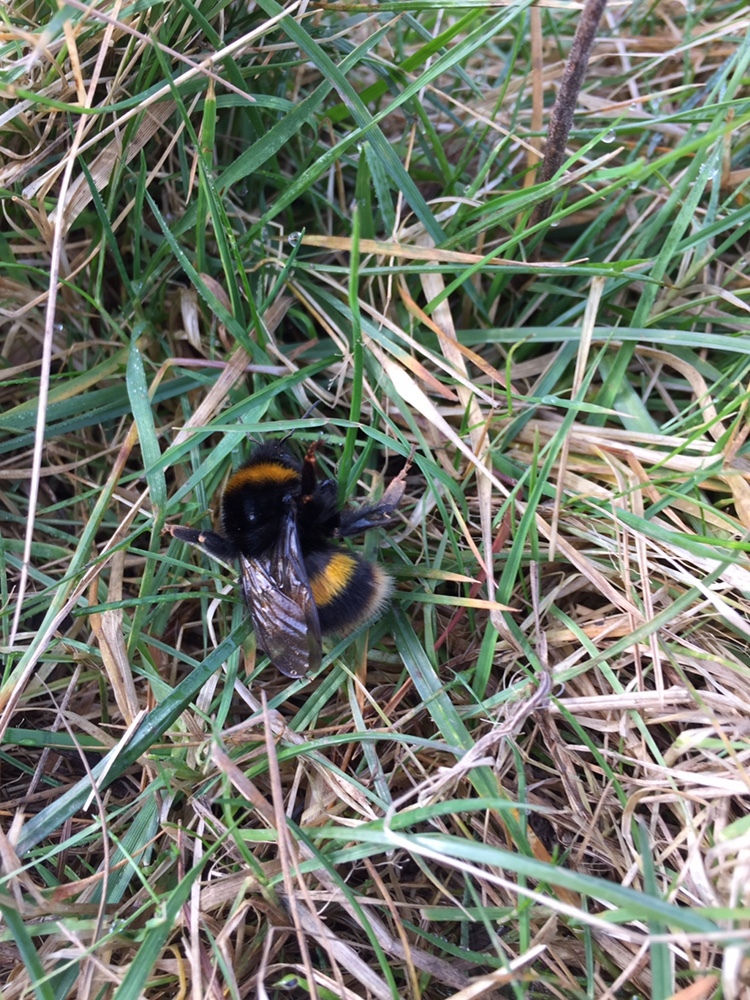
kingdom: Animalia
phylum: Arthropoda
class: Insecta
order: Hymenoptera
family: Apidae
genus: Bombus
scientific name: Bombus terrestris
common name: Buff-tailed bumblebee
